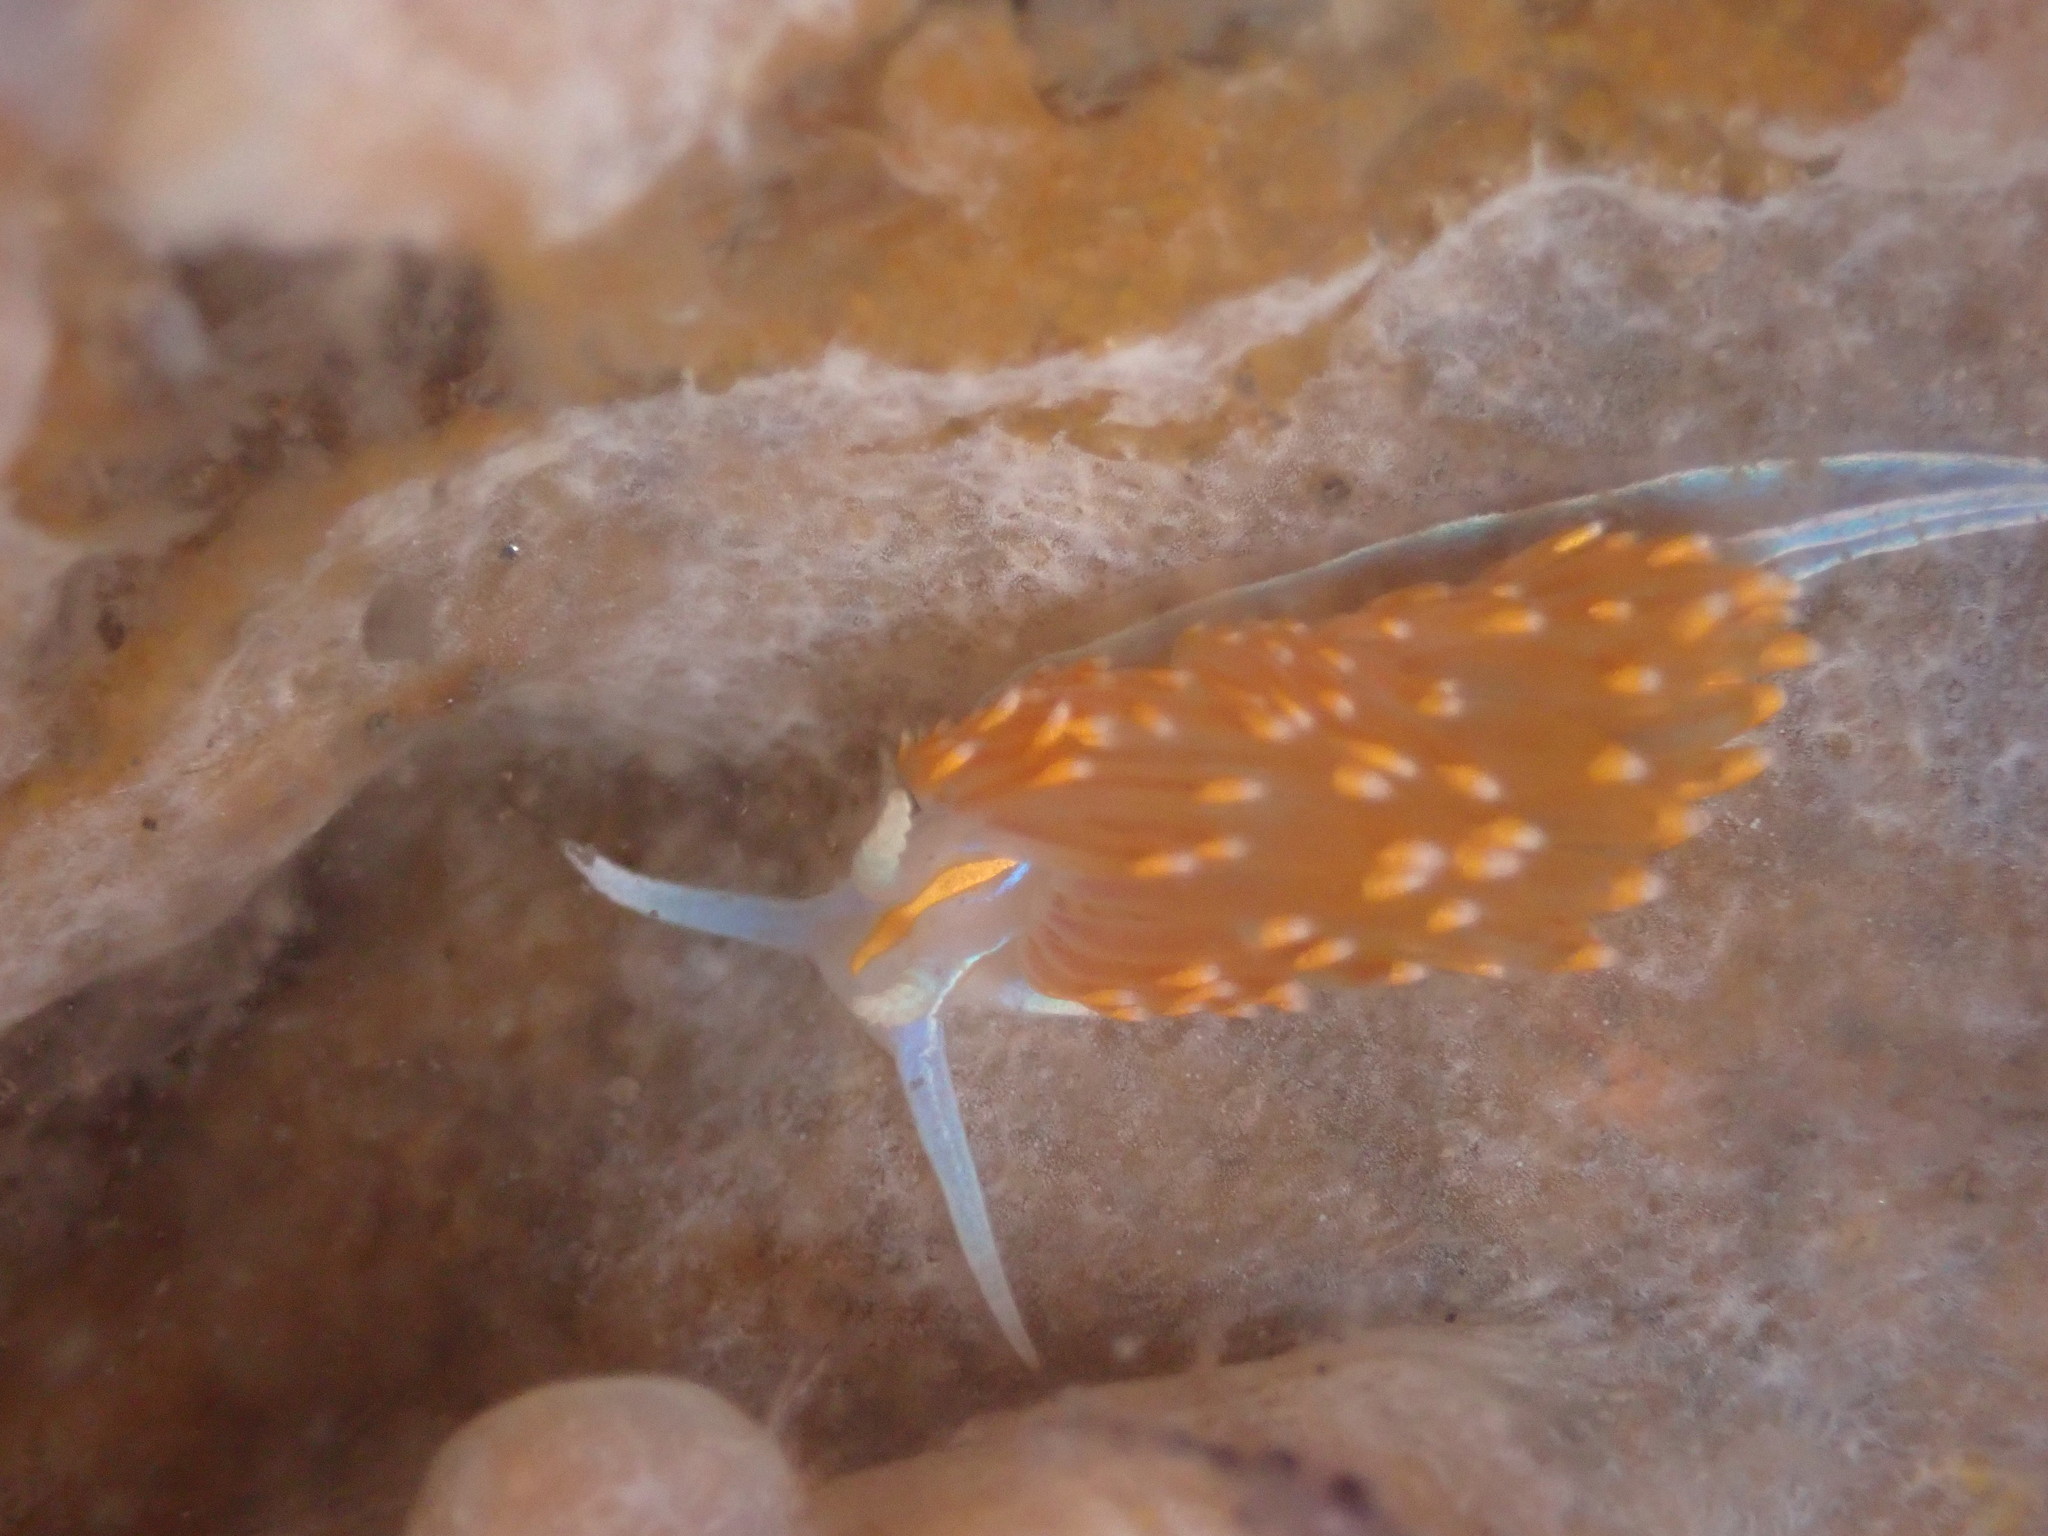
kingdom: Animalia
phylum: Mollusca
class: Gastropoda
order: Nudibranchia
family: Myrrhinidae
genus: Hermissenda
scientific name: Hermissenda opalescens
